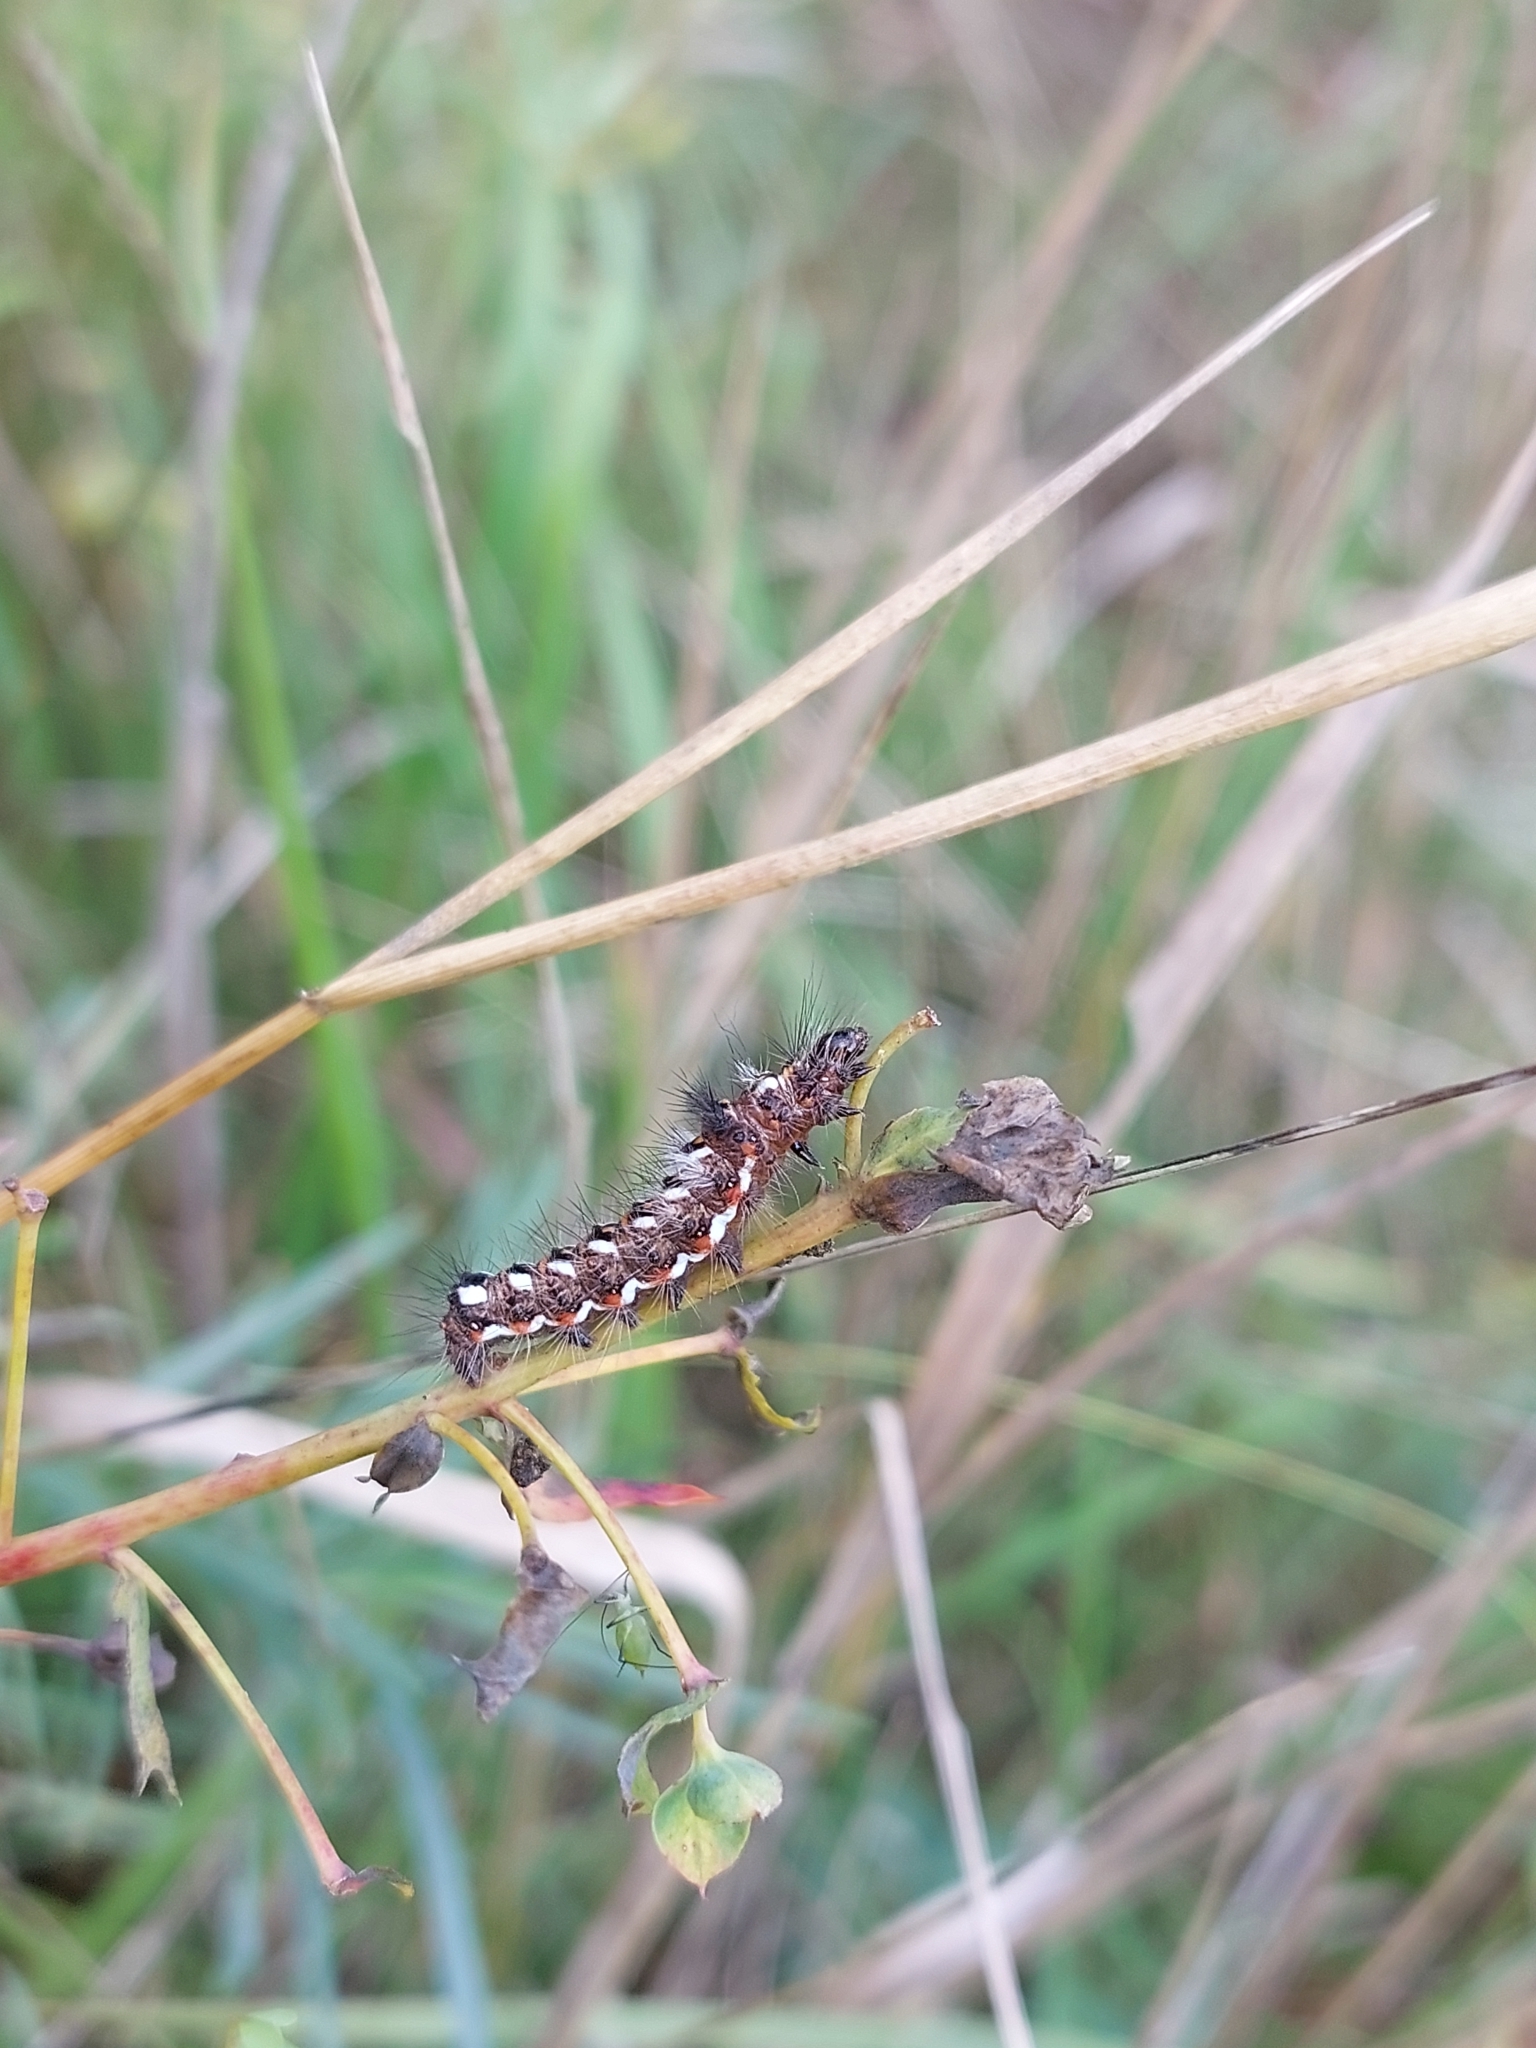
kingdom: Animalia
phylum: Arthropoda
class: Insecta
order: Lepidoptera
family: Noctuidae
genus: Acronicta
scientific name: Acronicta rumicis
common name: Knot grass
